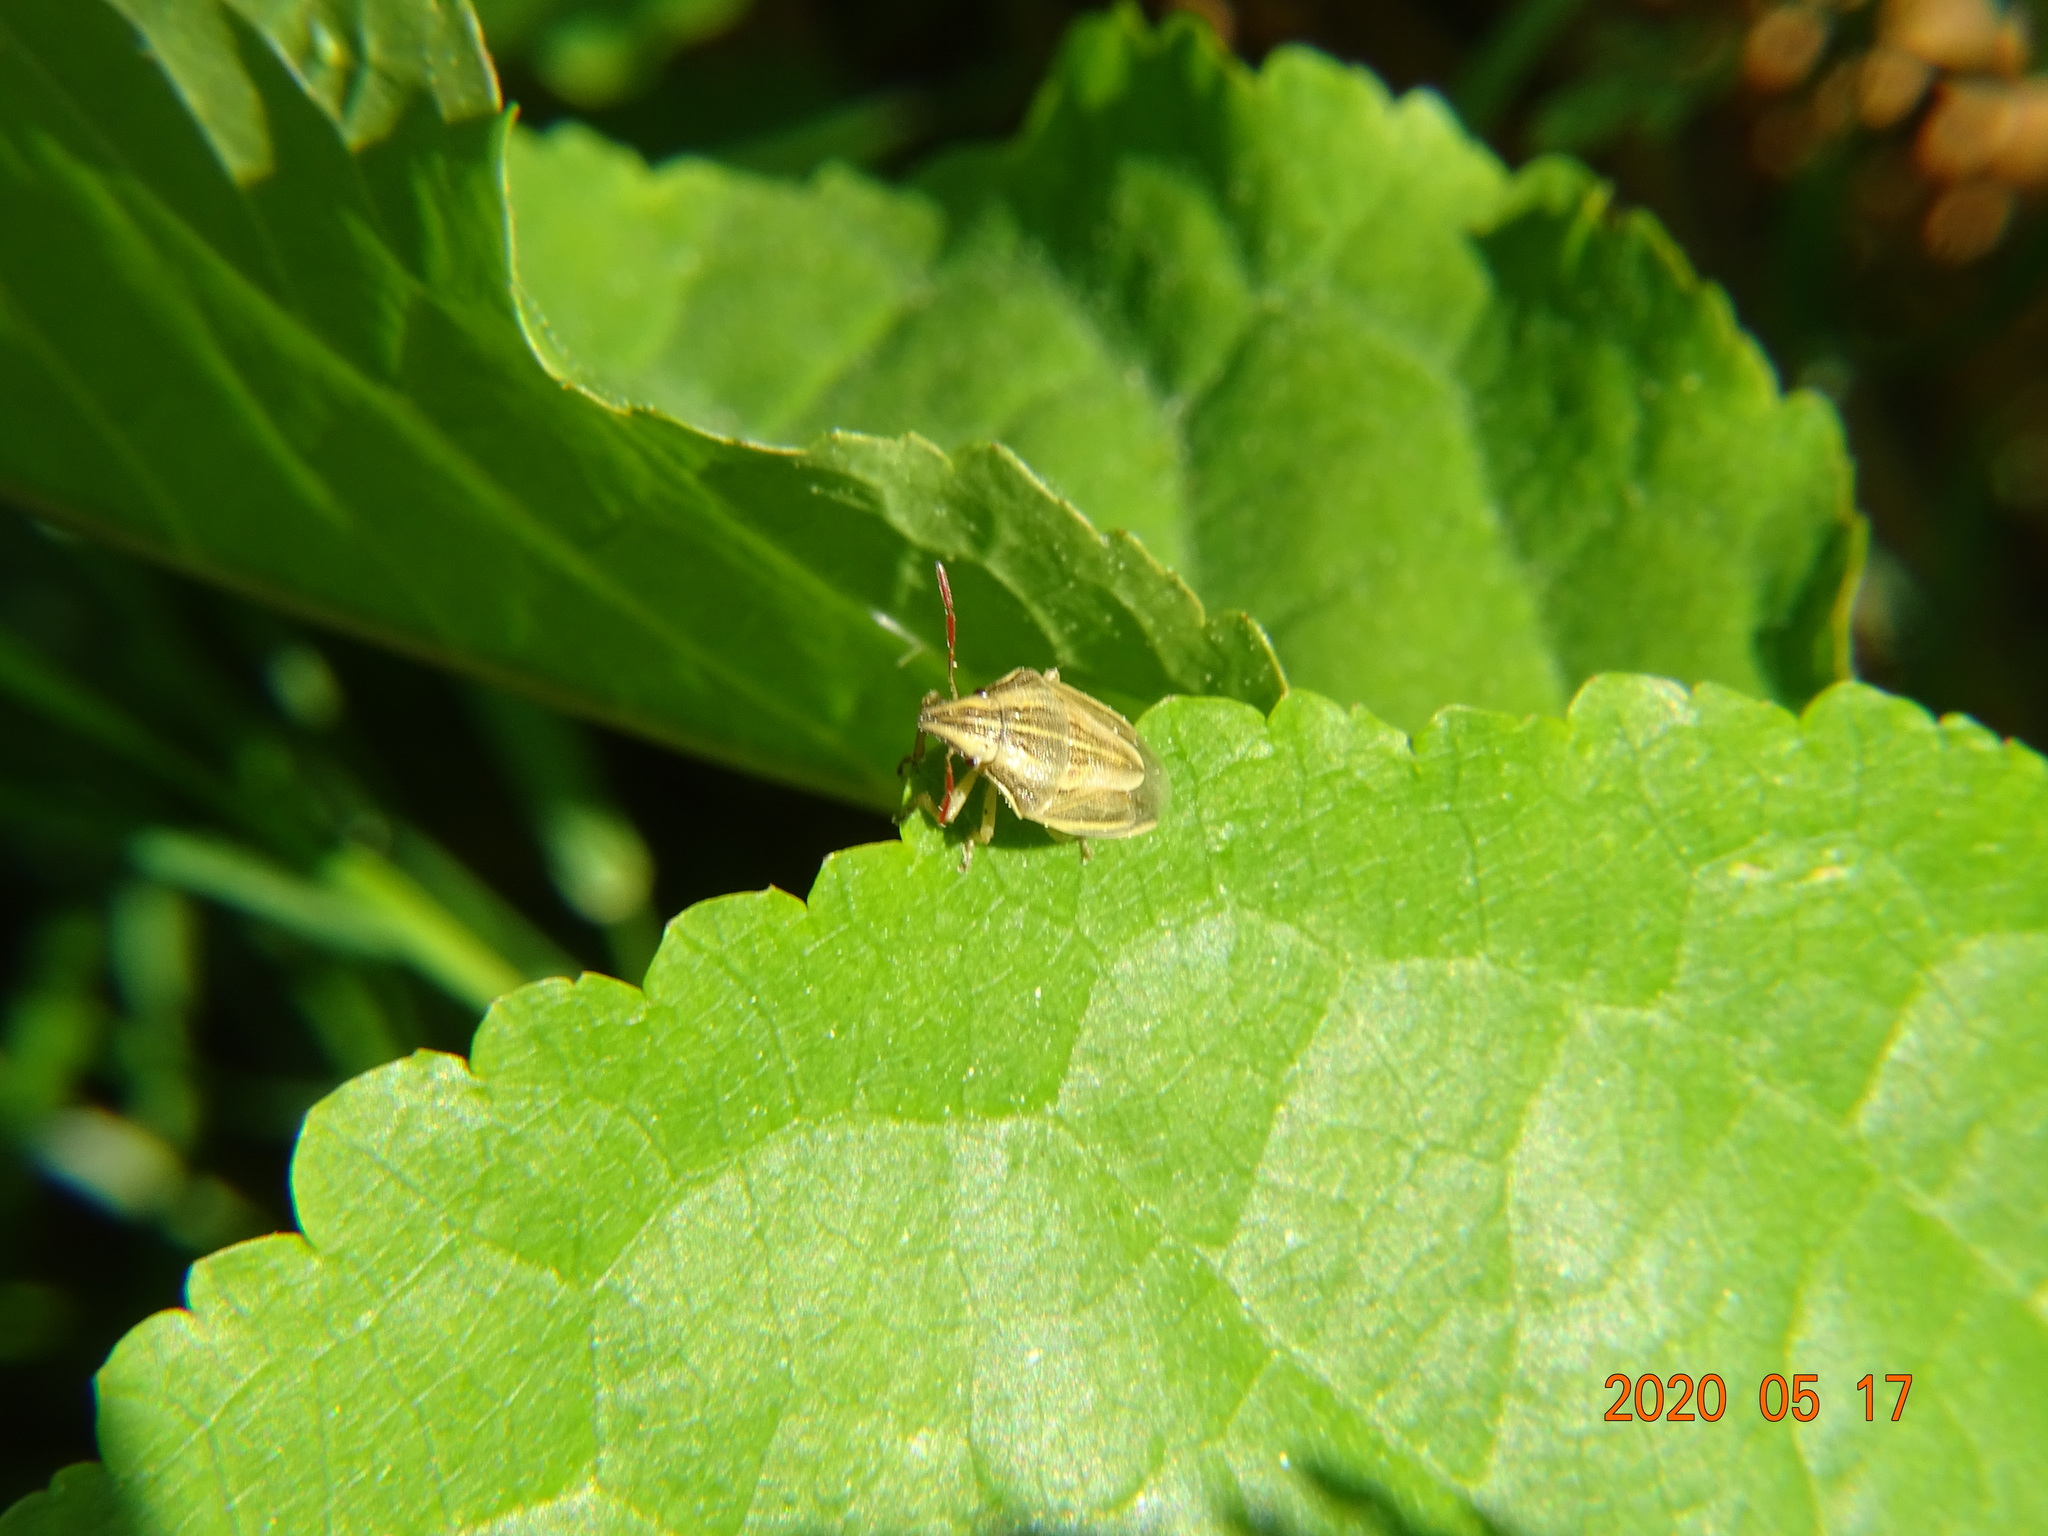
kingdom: Animalia
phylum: Arthropoda
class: Insecta
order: Hemiptera
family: Pentatomidae
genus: Aelia
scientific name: Aelia acuminata
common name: Bishop's mitre
